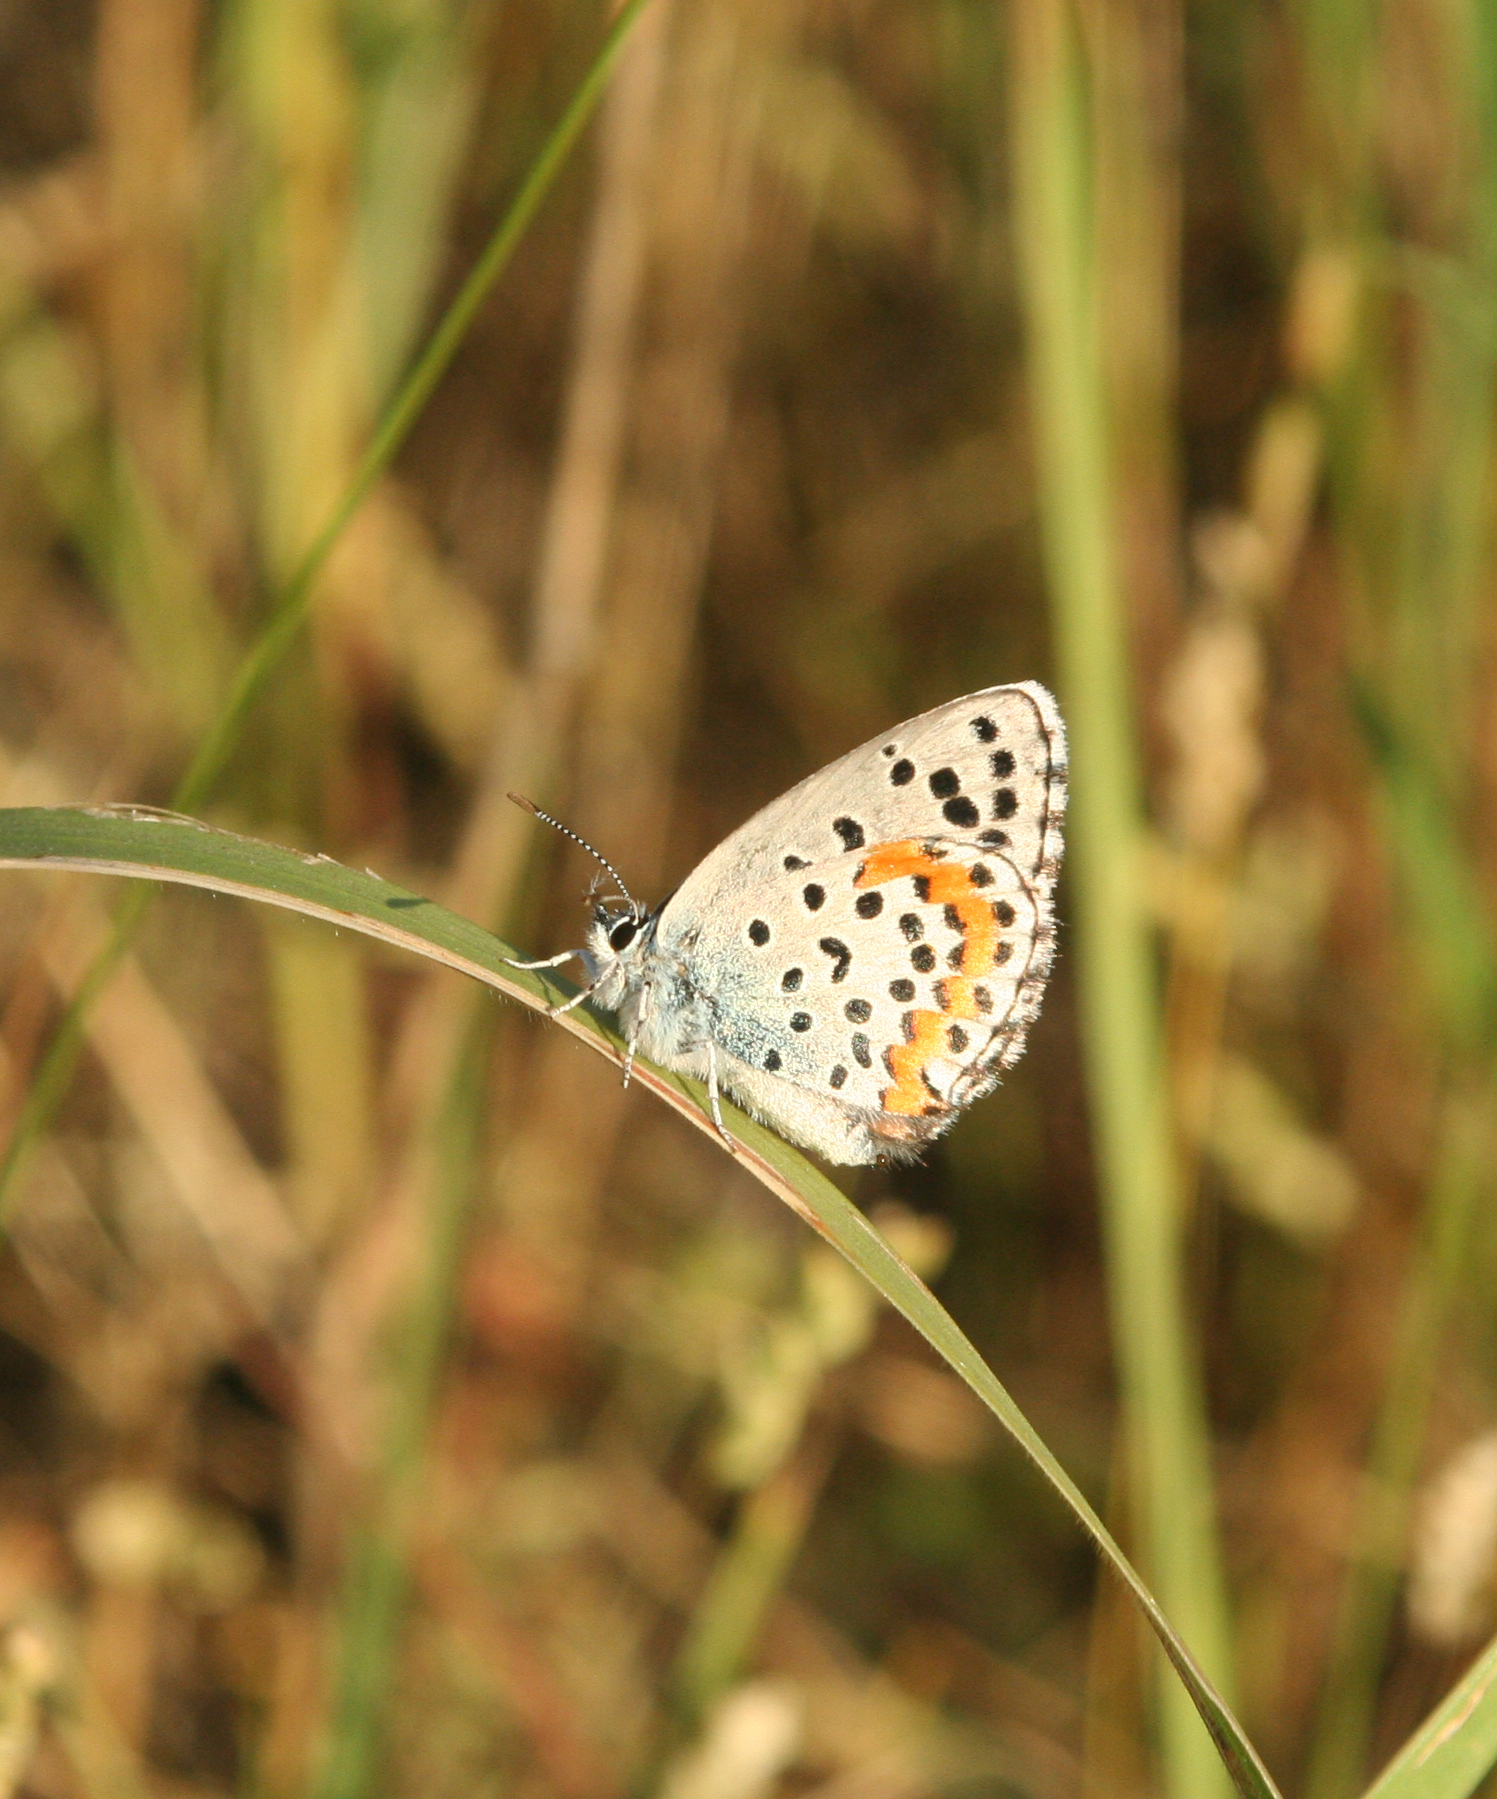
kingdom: Animalia
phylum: Arthropoda
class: Insecta
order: Lepidoptera
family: Lycaenidae
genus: Pseudophilotes
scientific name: Pseudophilotes bavius
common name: Bavius blue
